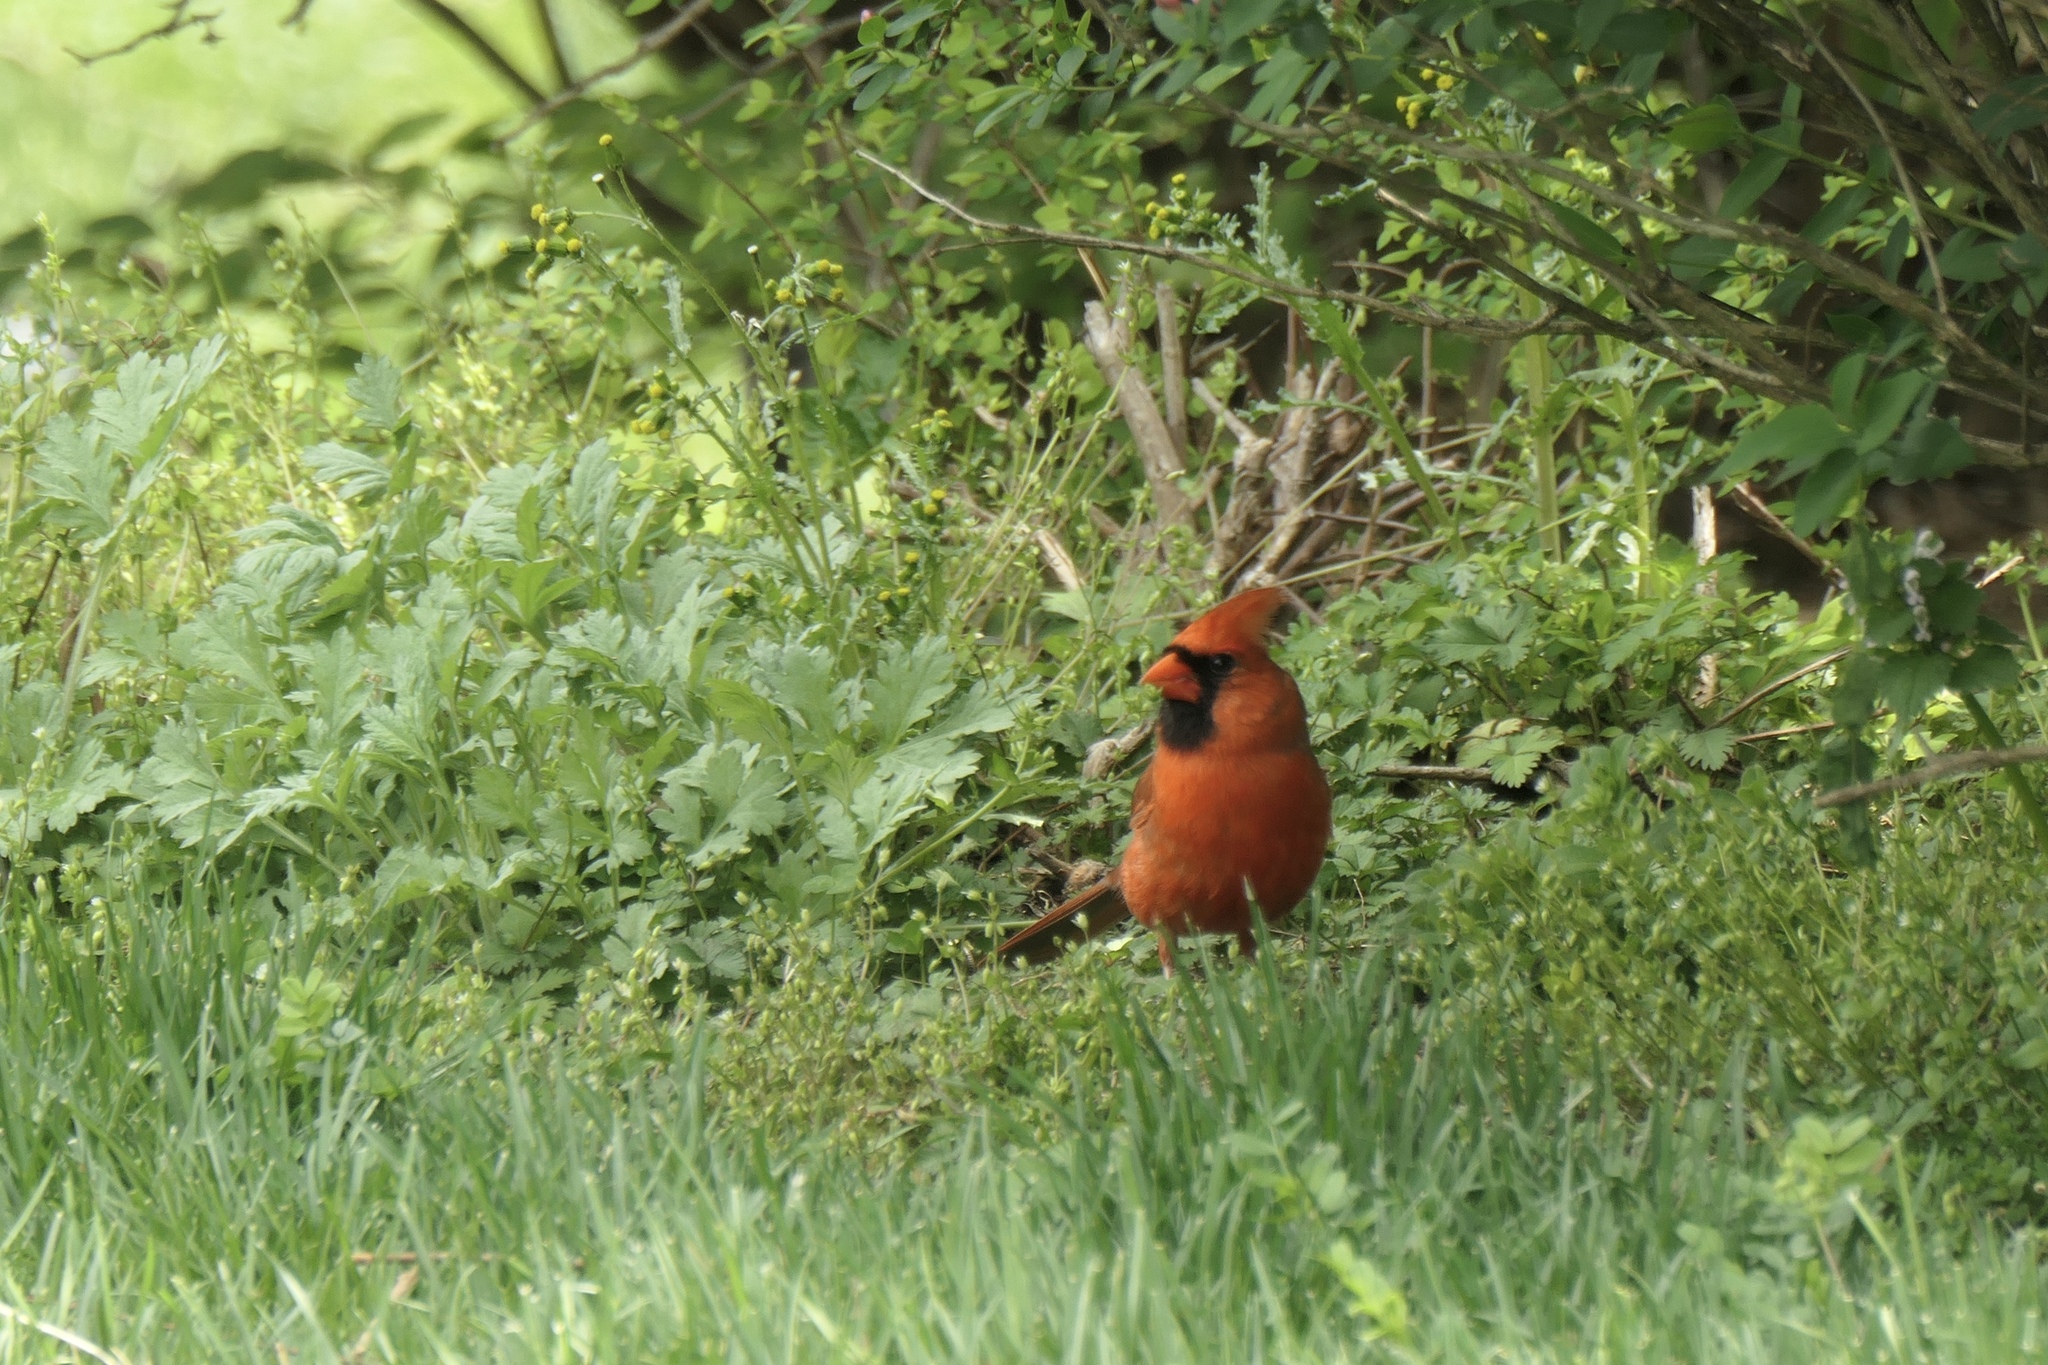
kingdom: Animalia
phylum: Chordata
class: Aves
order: Passeriformes
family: Cardinalidae
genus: Cardinalis
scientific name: Cardinalis cardinalis
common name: Northern cardinal
